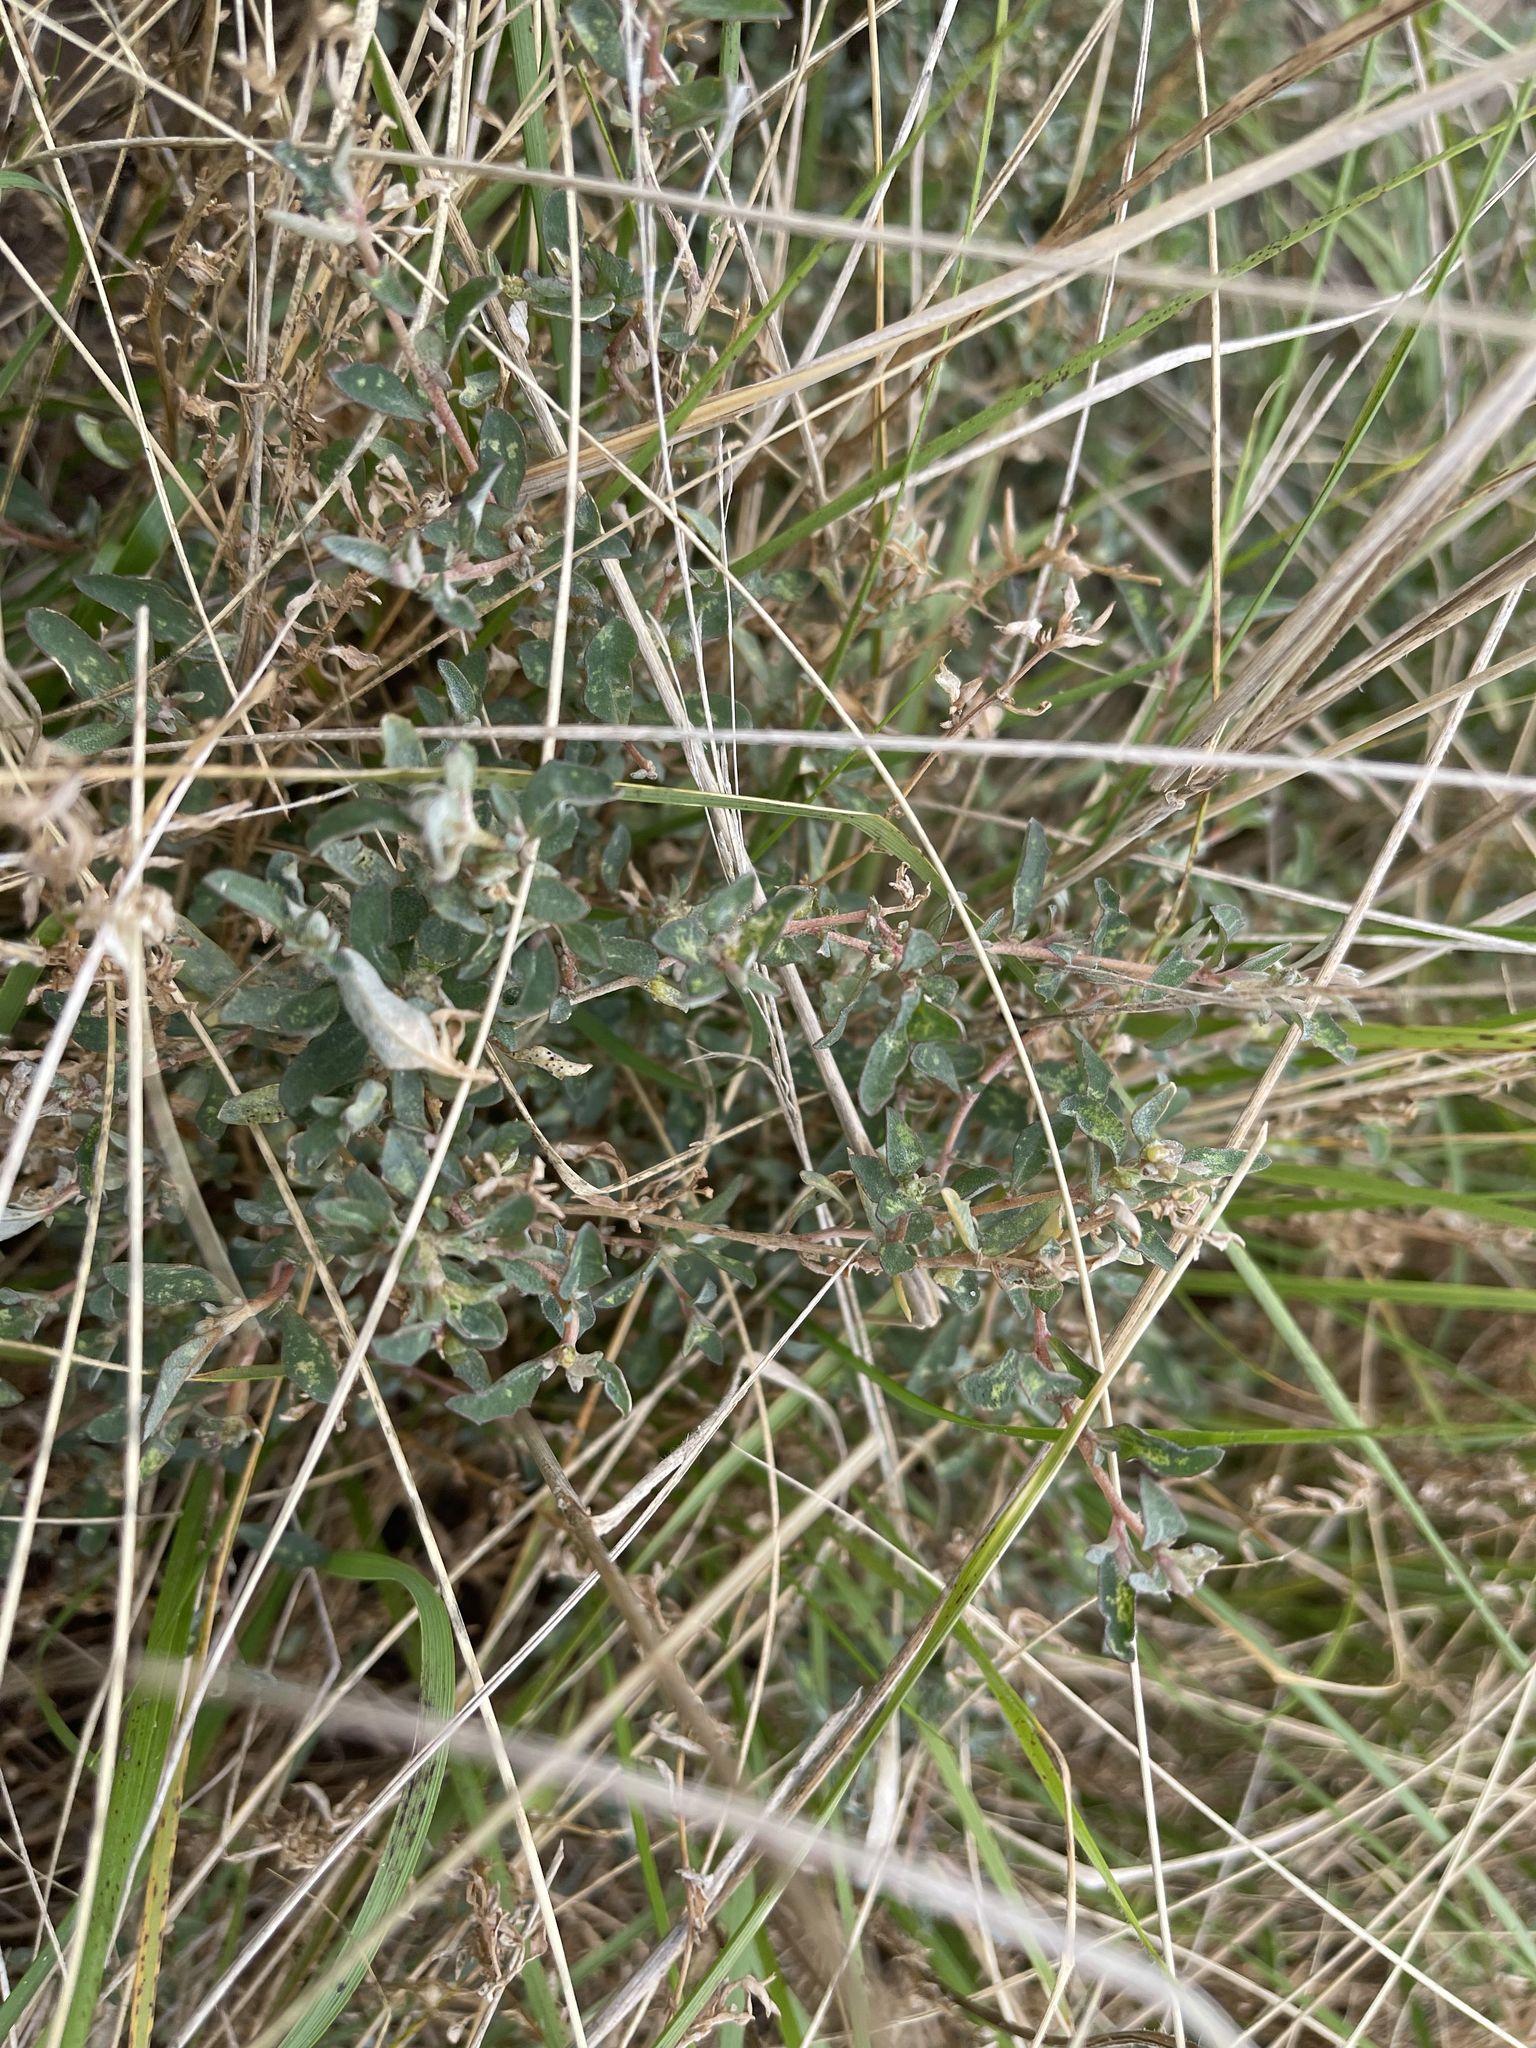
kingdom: Plantae
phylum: Tracheophyta
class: Magnoliopsida
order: Caryophyllales
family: Amaranthaceae
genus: Atriplex
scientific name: Atriplex semibaccata
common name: Australian saltbush
